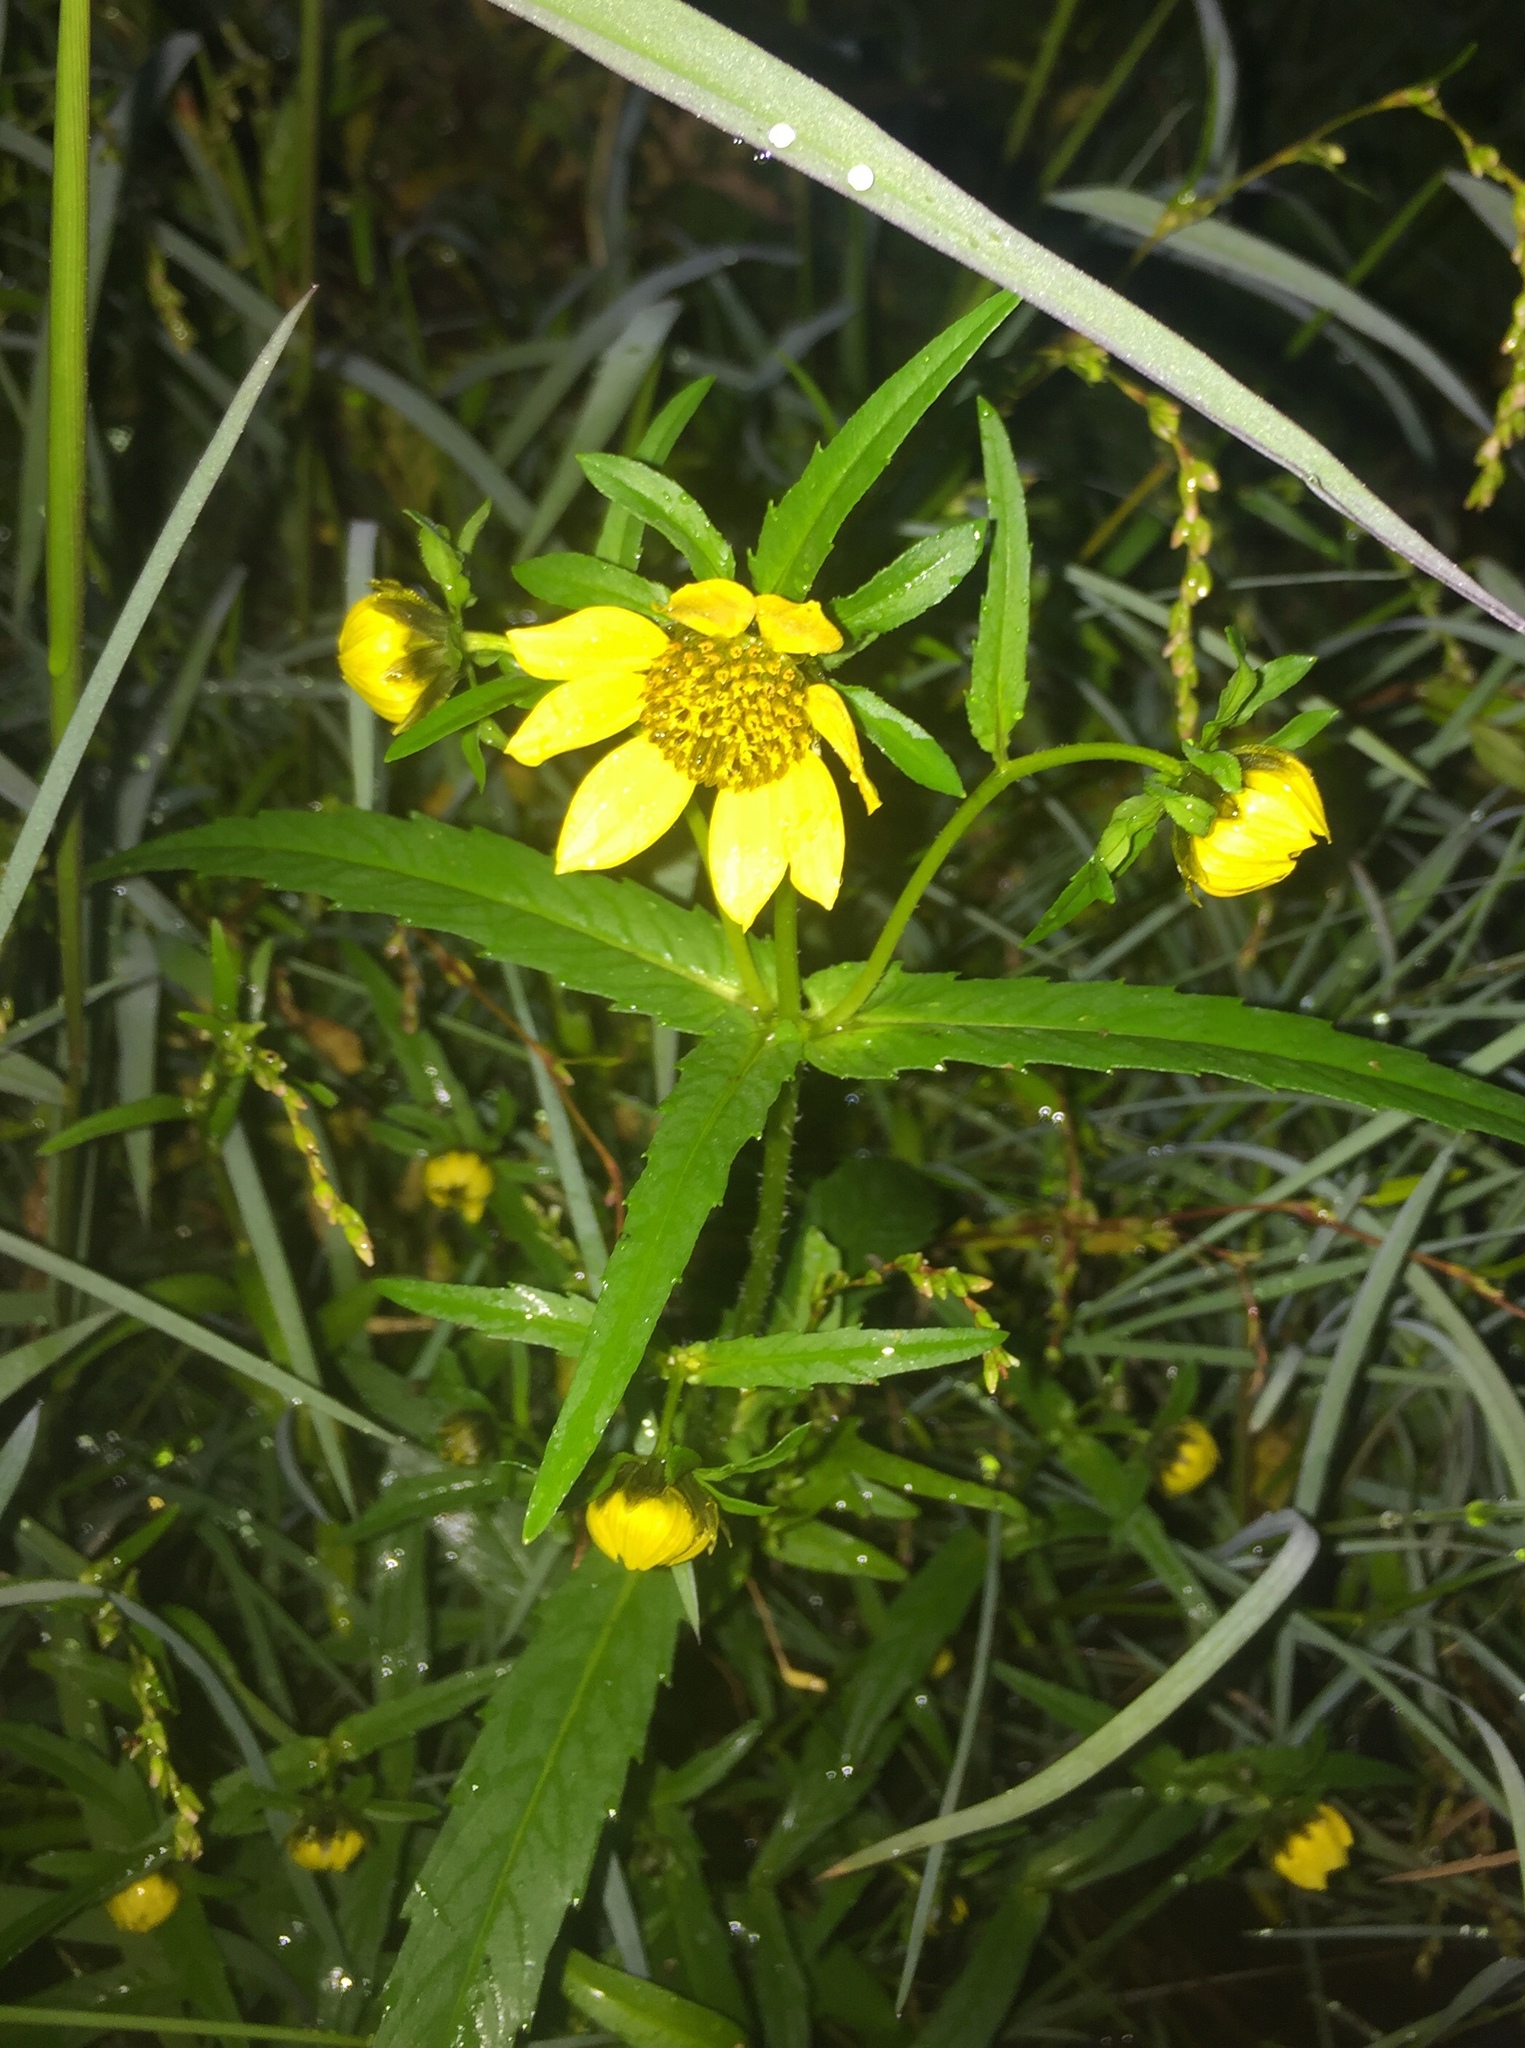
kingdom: Plantae
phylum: Tracheophyta
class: Magnoliopsida
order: Asterales
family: Asteraceae
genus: Bidens
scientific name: Bidens cernua
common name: Nodding bur-marigold
